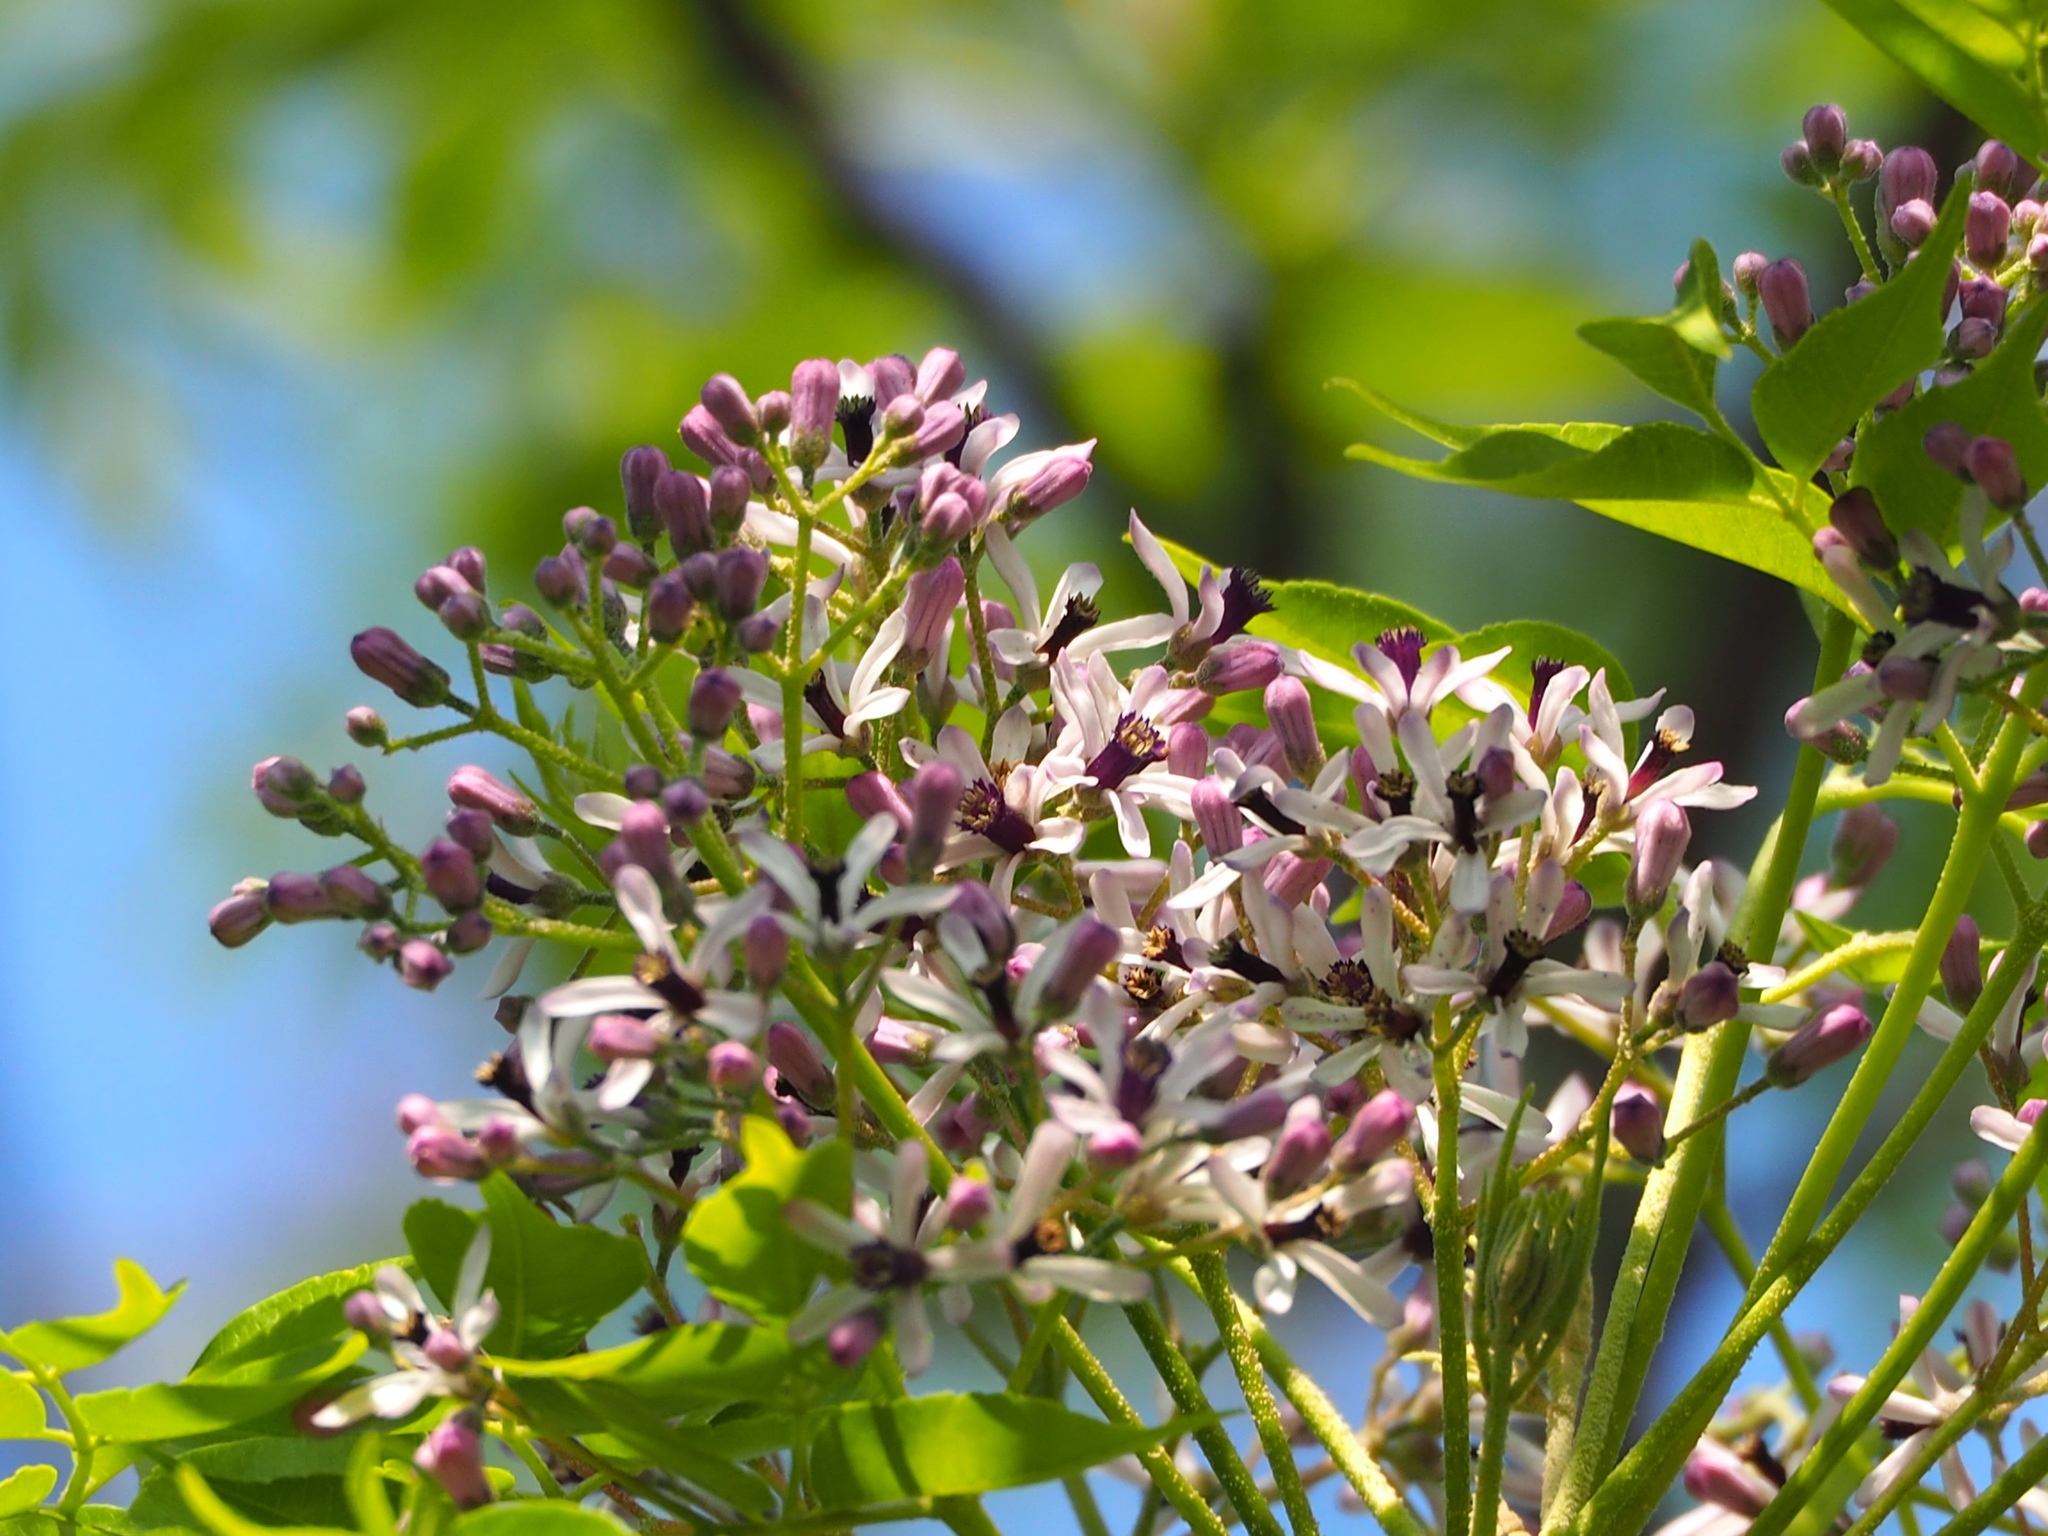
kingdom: Plantae
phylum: Tracheophyta
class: Magnoliopsida
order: Sapindales
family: Meliaceae
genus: Melia
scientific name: Melia azedarach
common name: Chinaberrytree
